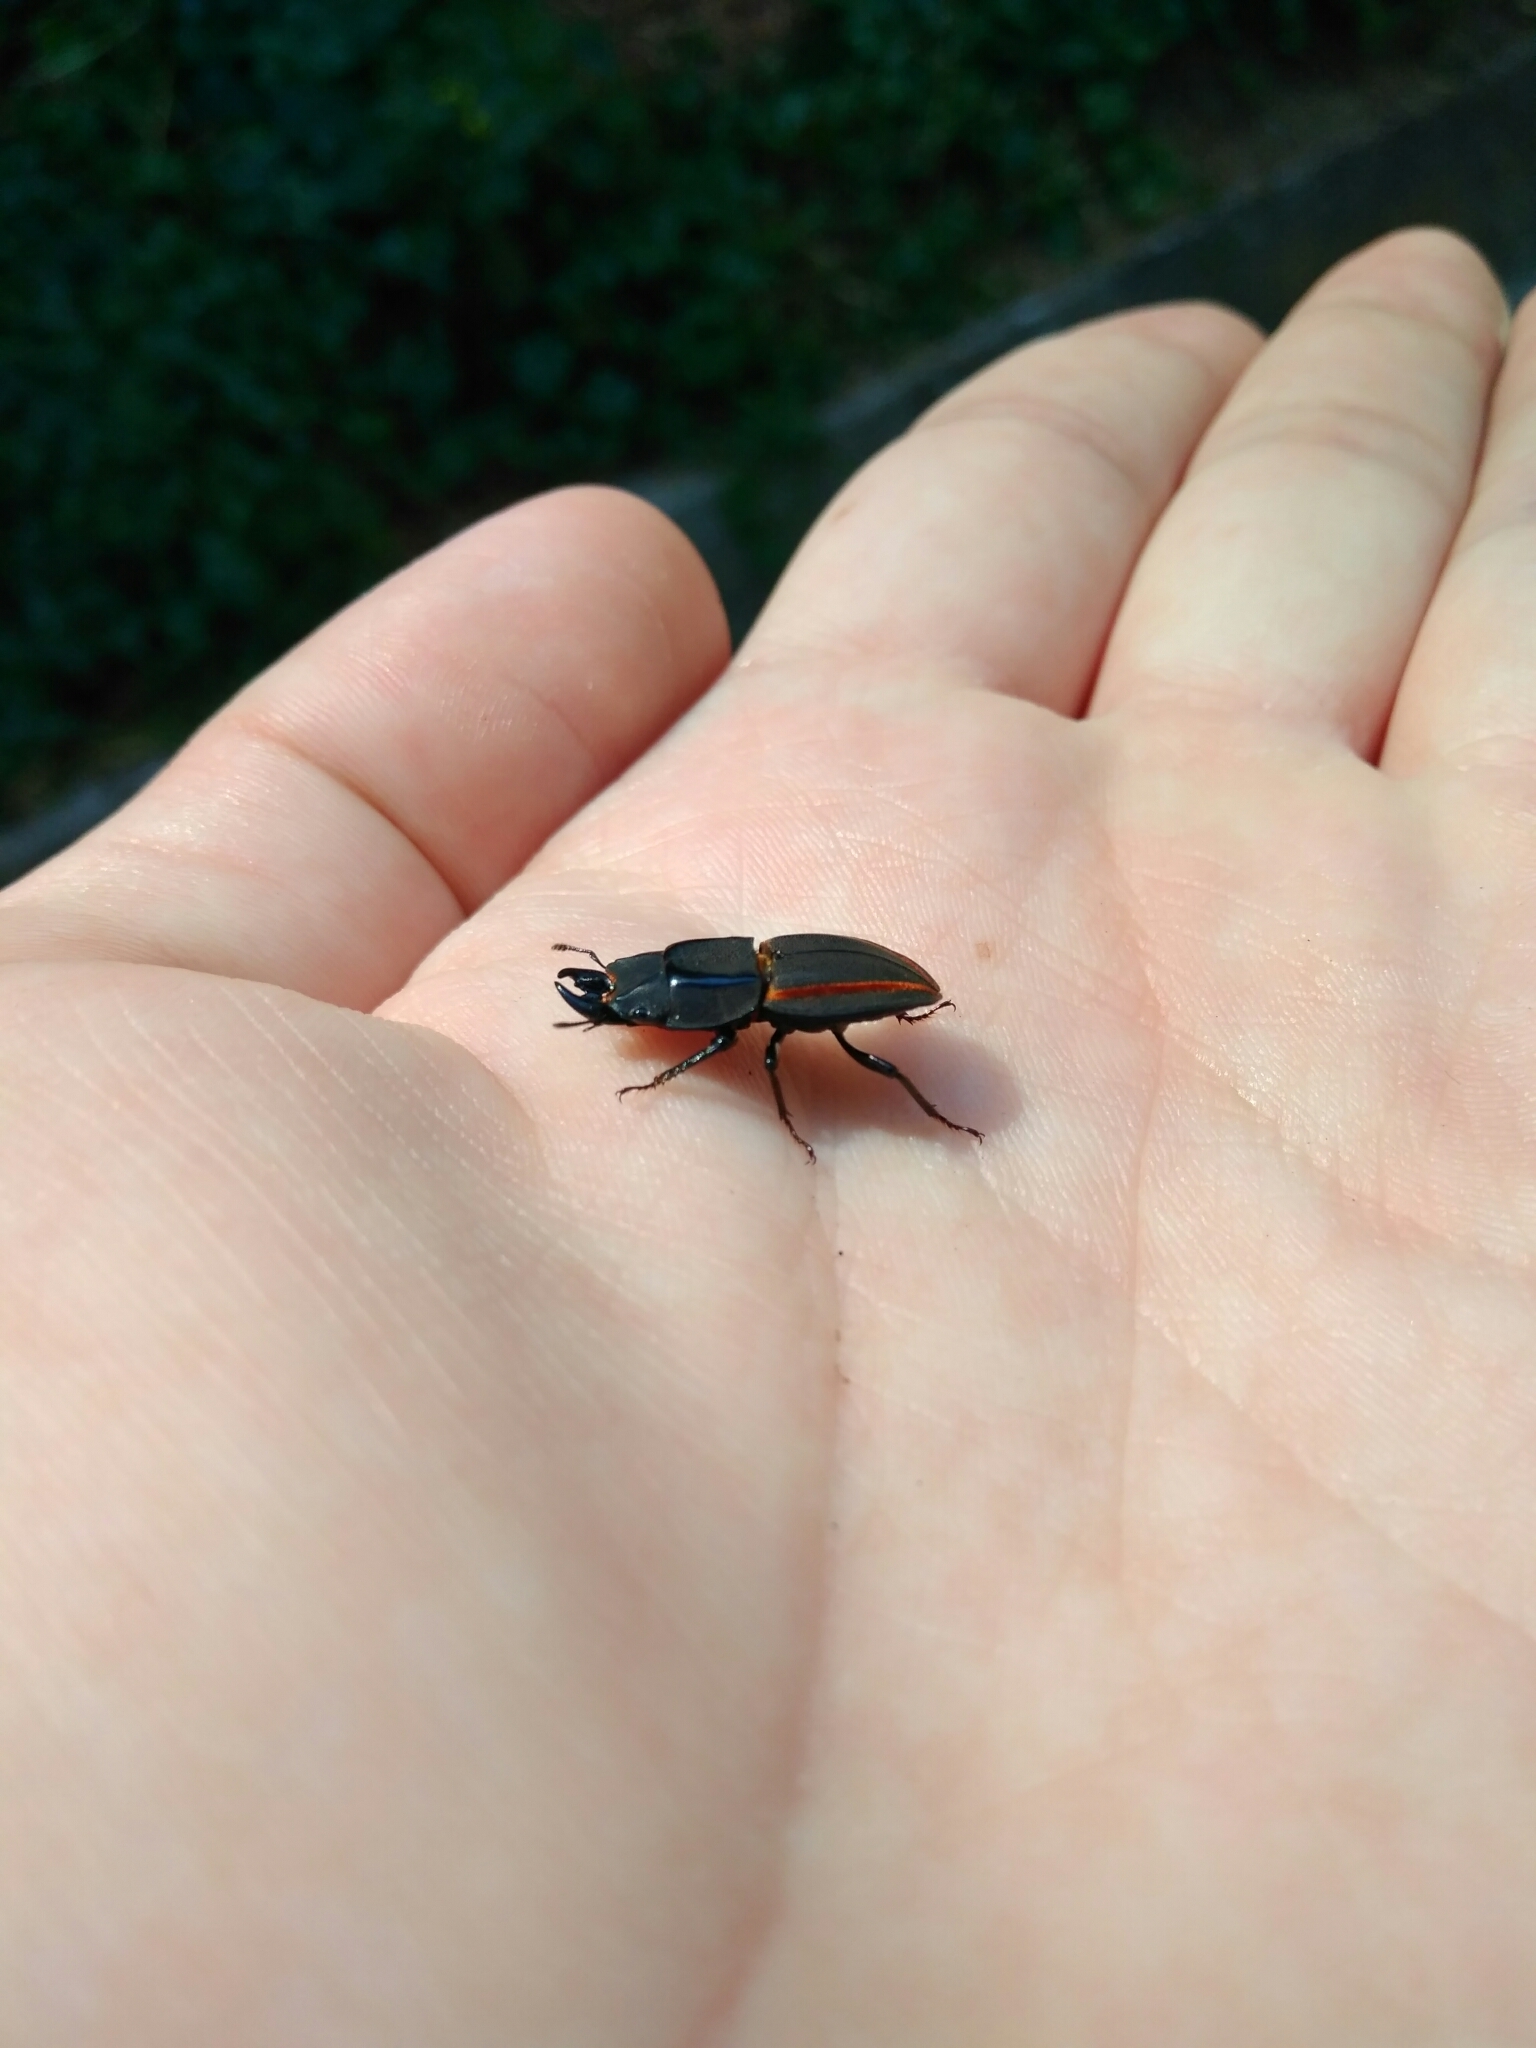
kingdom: Animalia
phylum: Arthropoda
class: Insecta
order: Coleoptera
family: Lucanidae
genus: Erichius
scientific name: Erichius vittatus
